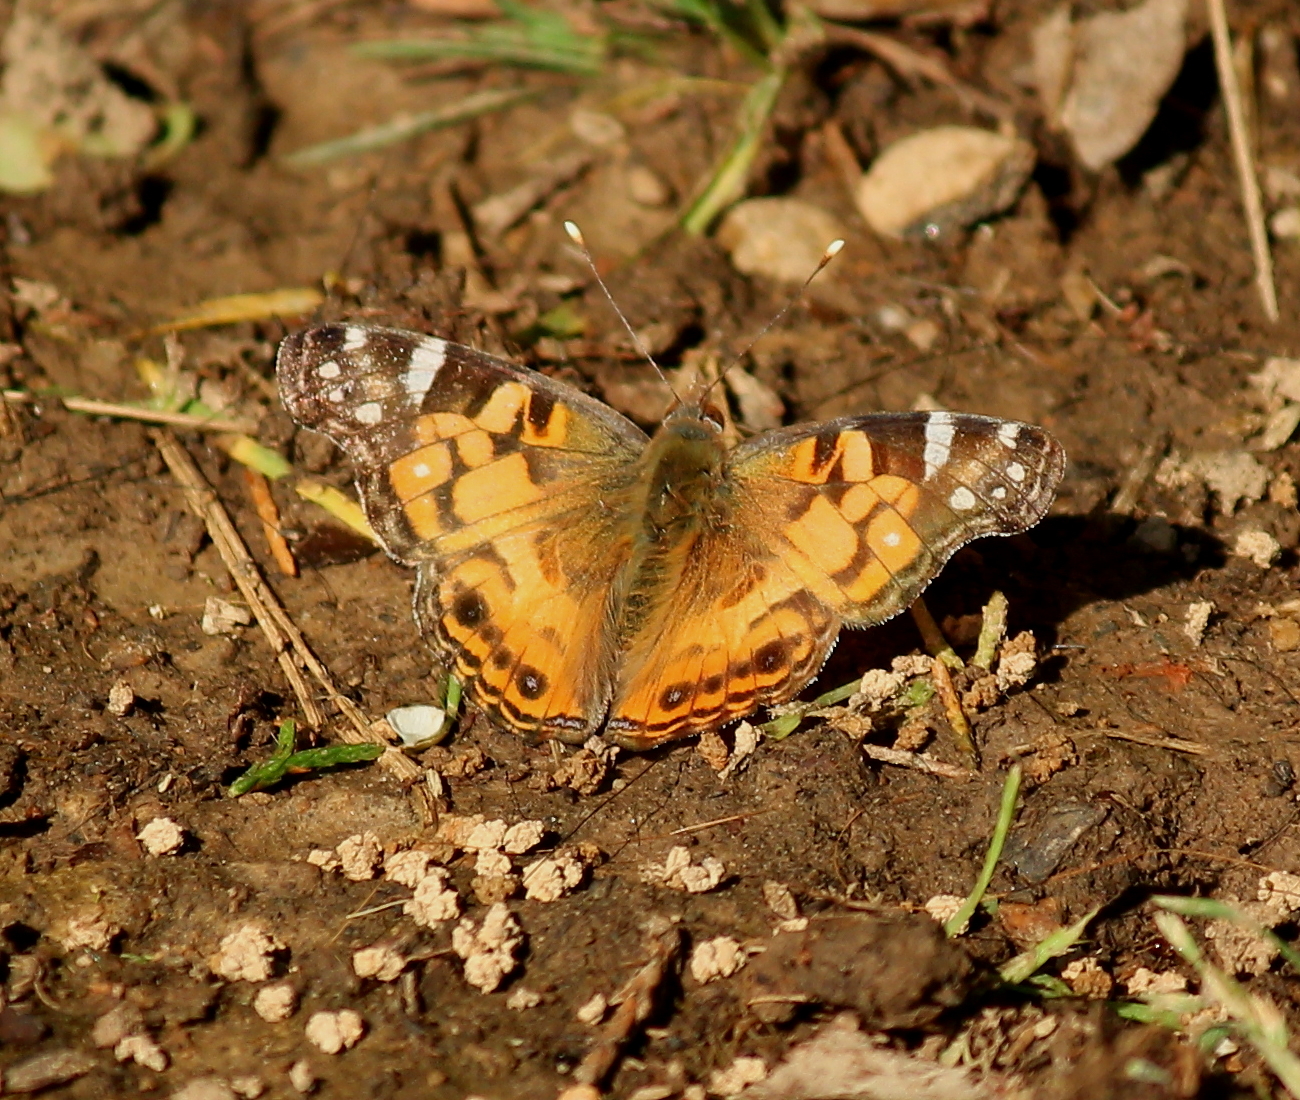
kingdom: Animalia
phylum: Arthropoda
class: Insecta
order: Lepidoptera
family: Nymphalidae
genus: Vanessa
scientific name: Vanessa virginiensis
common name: American lady
